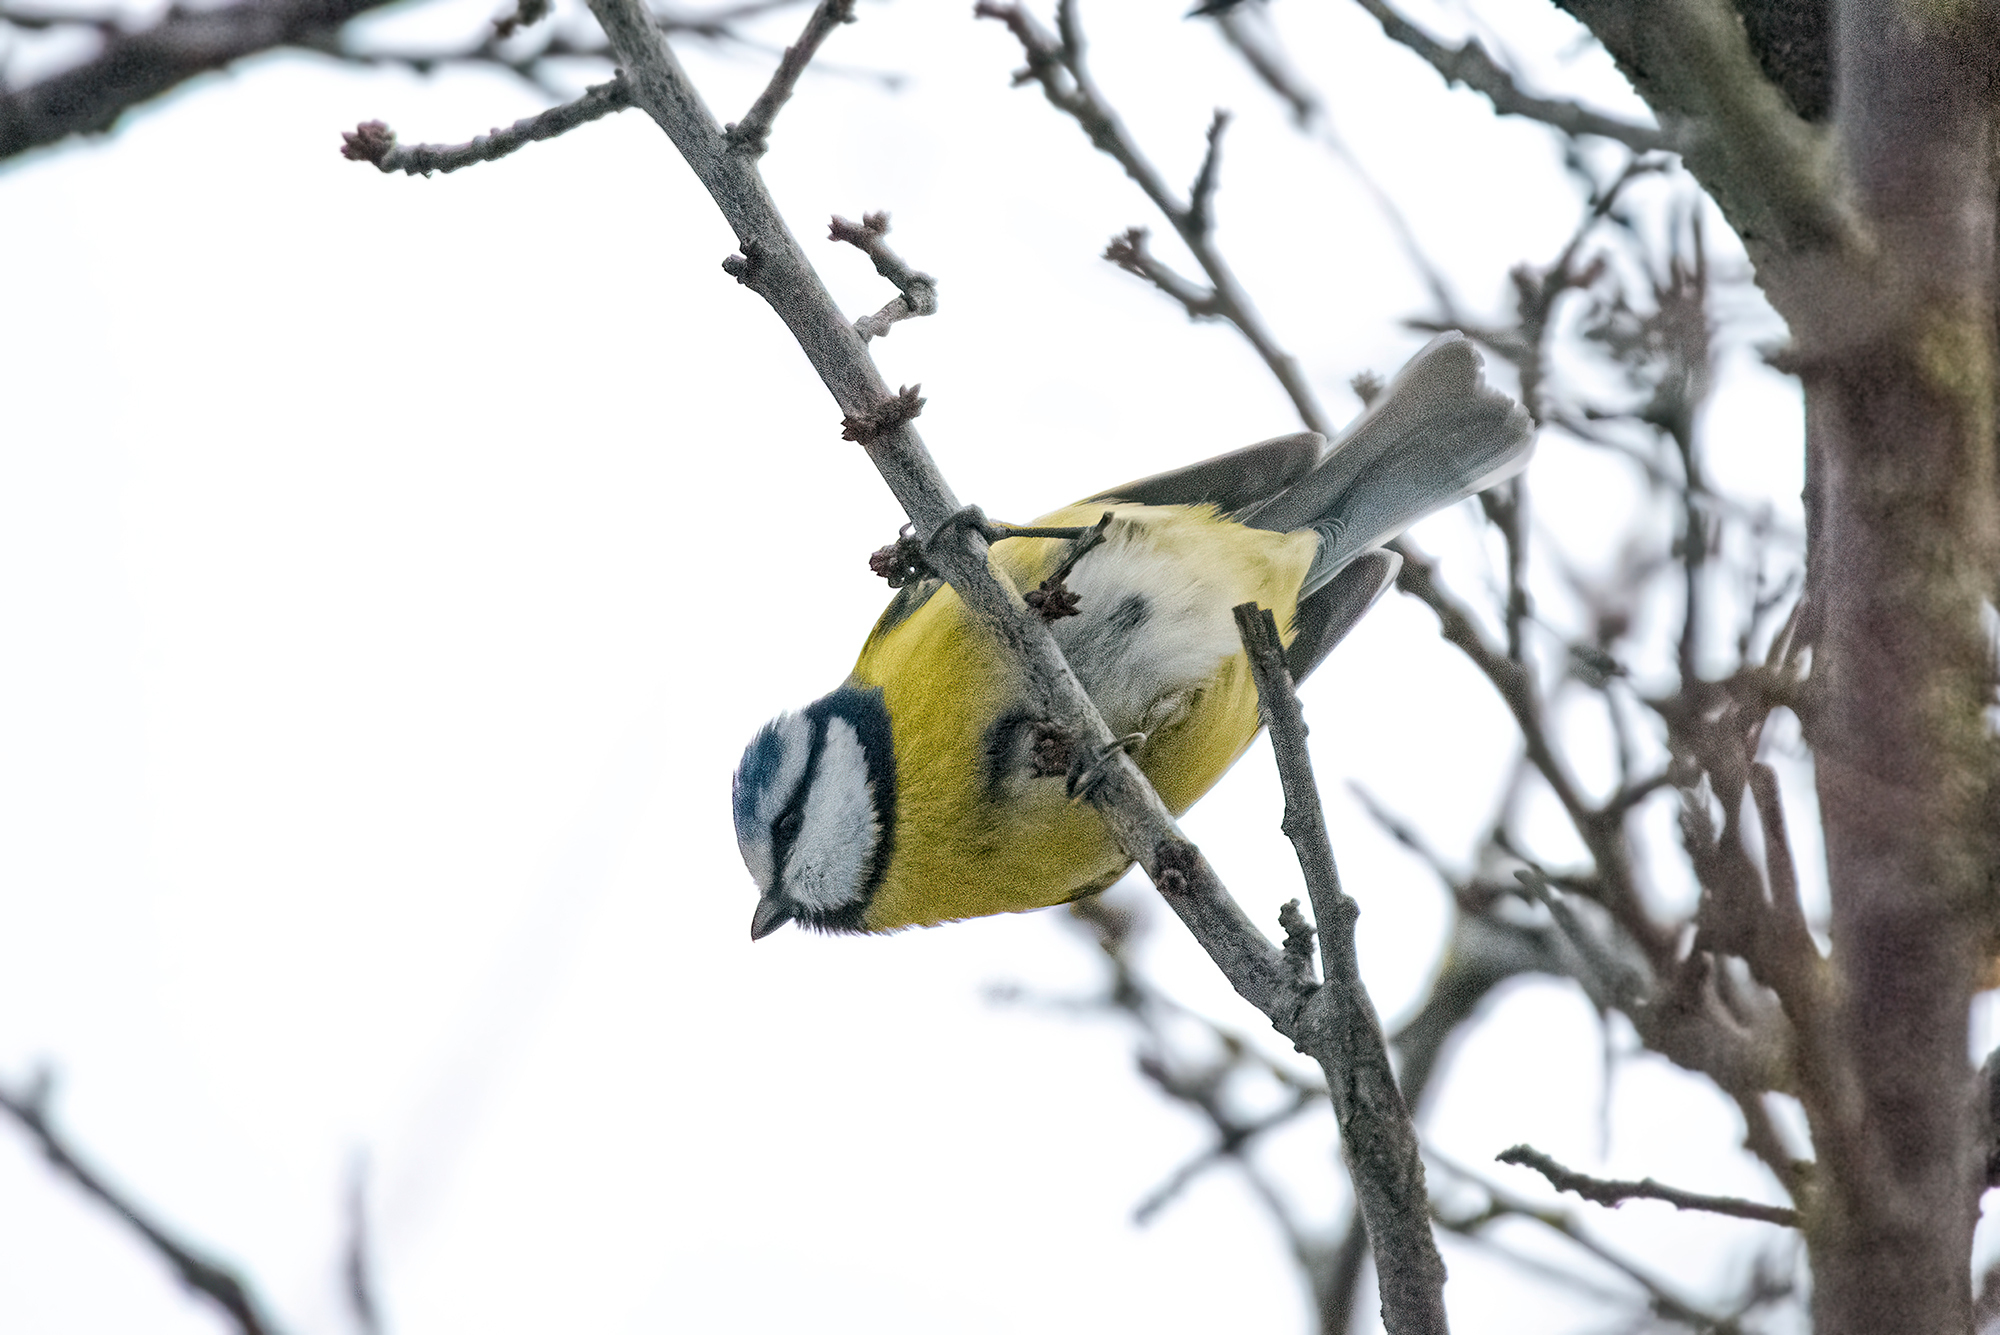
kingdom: Animalia
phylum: Chordata
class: Aves
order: Passeriformes
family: Paridae
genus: Cyanistes
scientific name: Cyanistes caeruleus
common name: Eurasian blue tit
